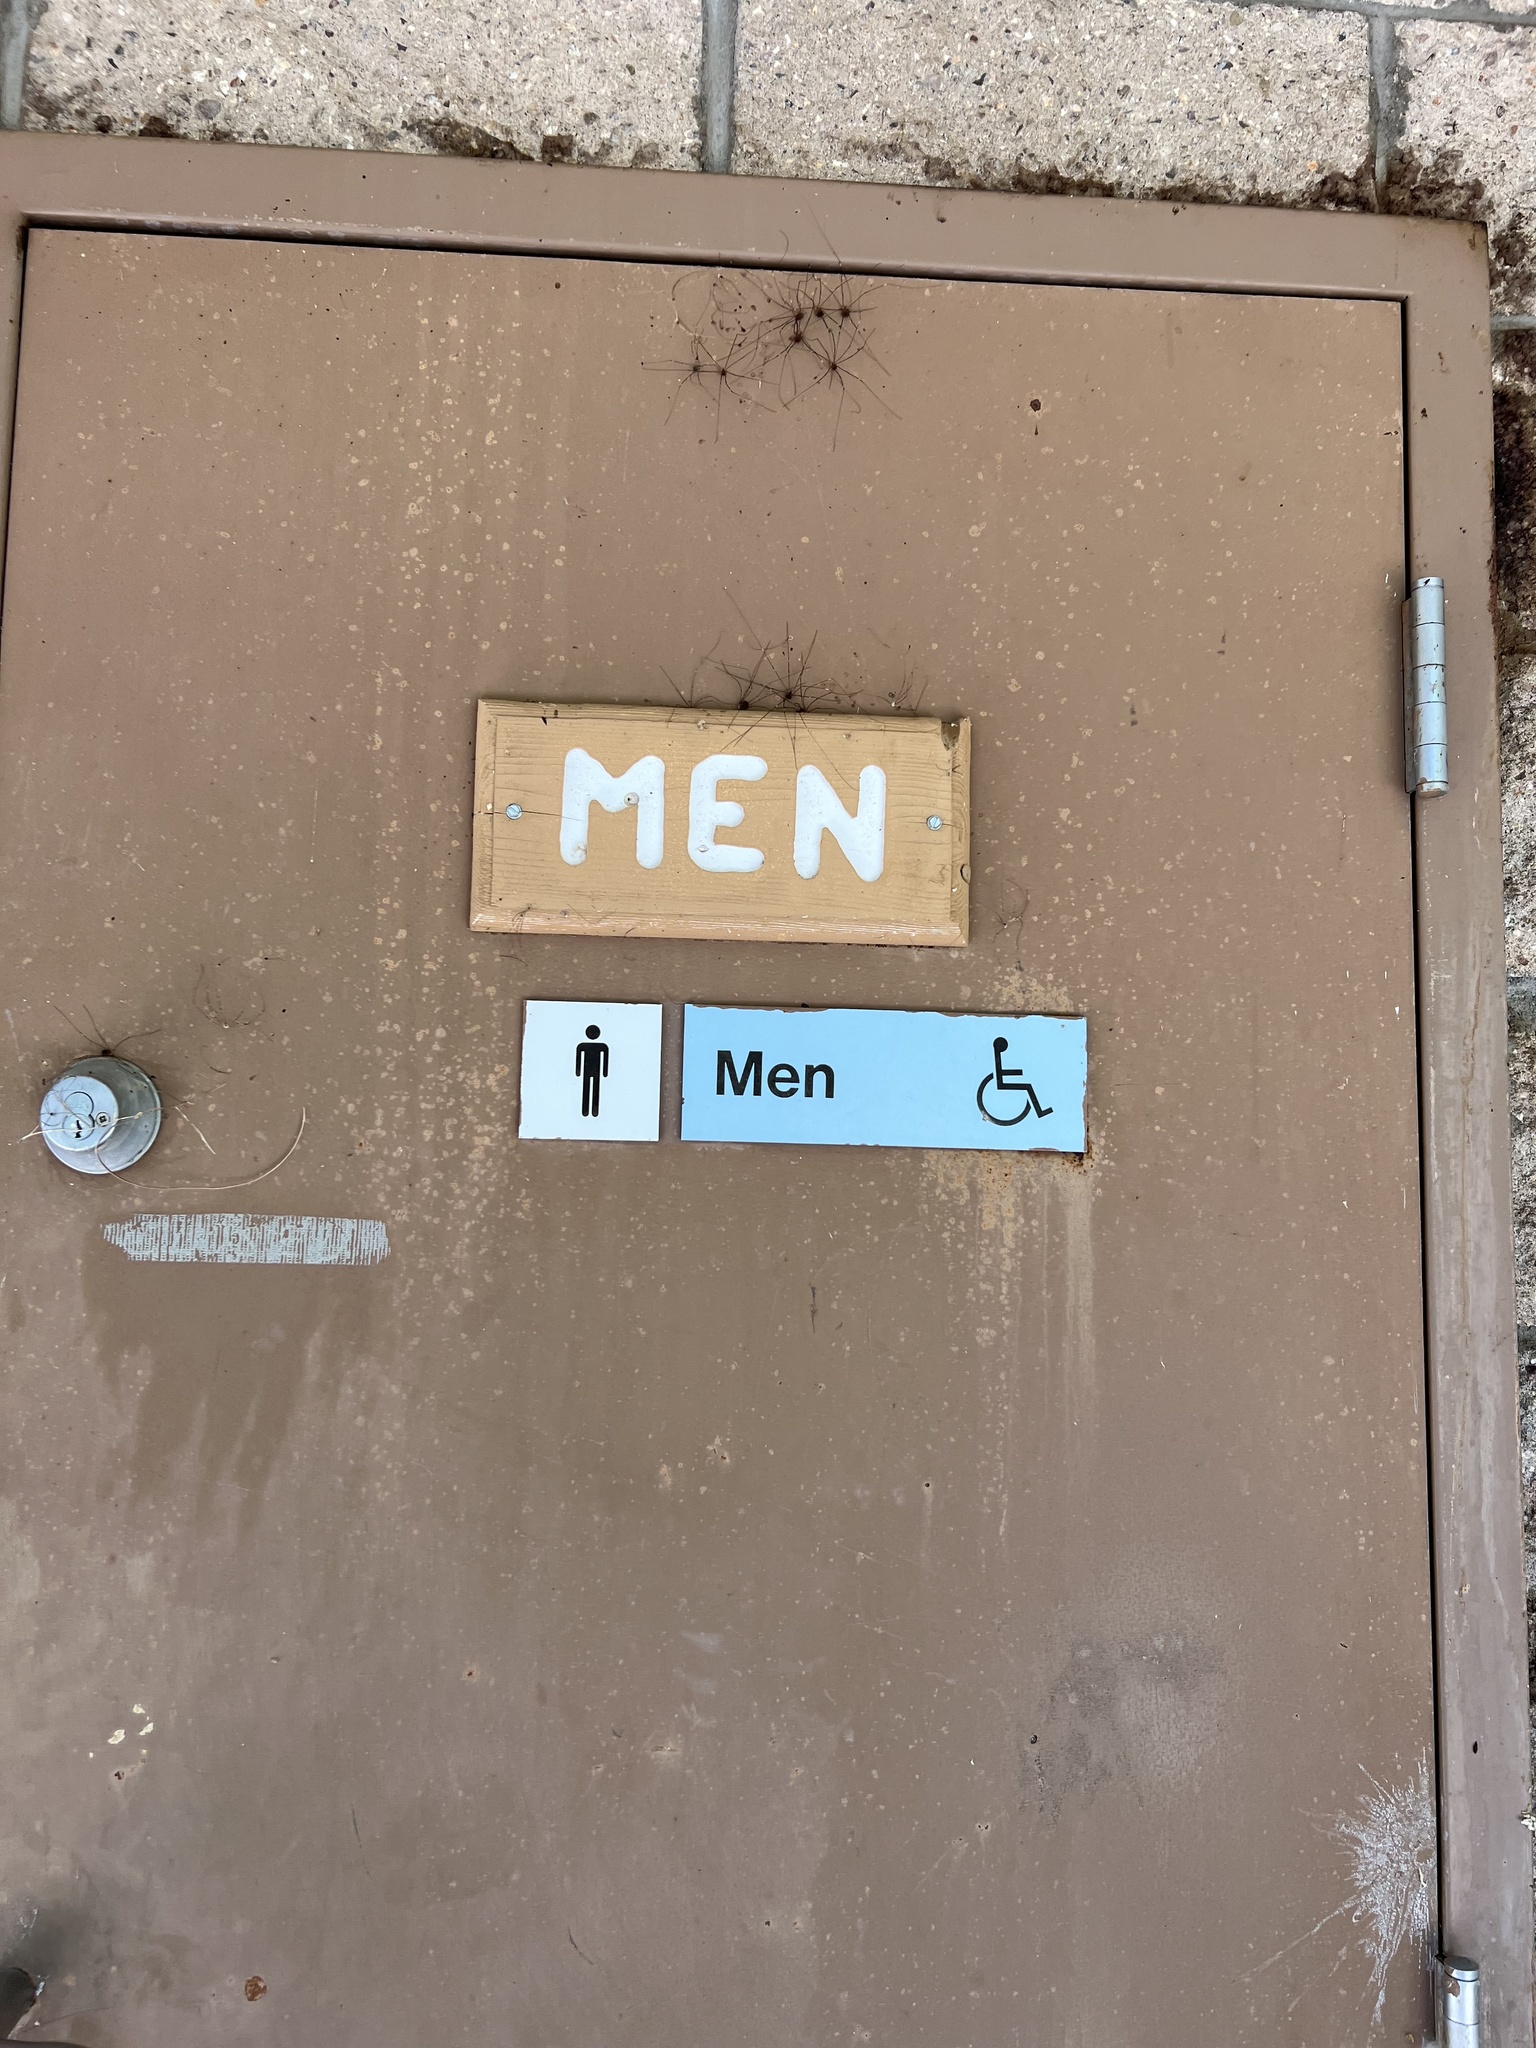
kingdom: Animalia
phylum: Arthropoda
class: Arachnida
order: Opiliones
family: Sclerosomatidae
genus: Leiobunum
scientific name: Leiobunum townsendi
